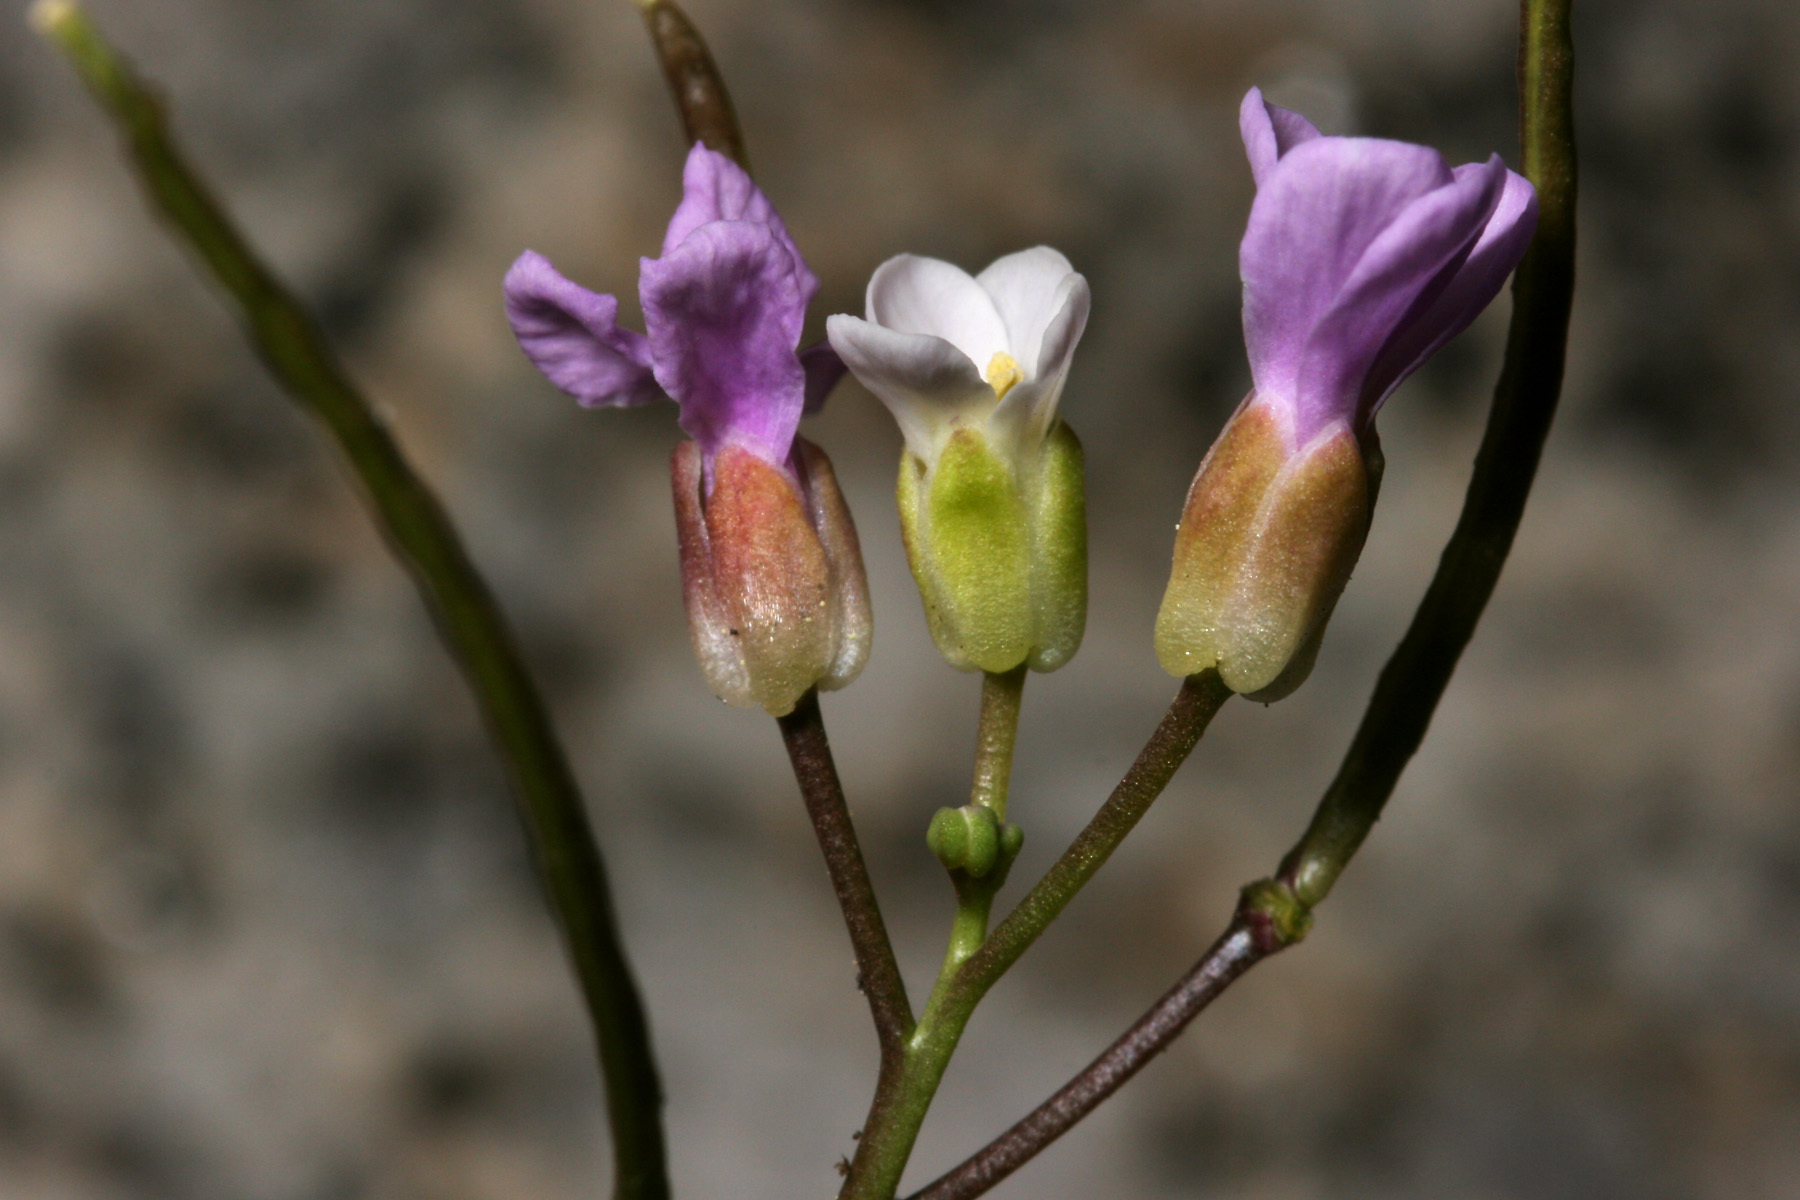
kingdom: Plantae
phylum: Tracheophyta
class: Magnoliopsida
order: Brassicales
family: Brassicaceae
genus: Boechera
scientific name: Boechera davidsonii
